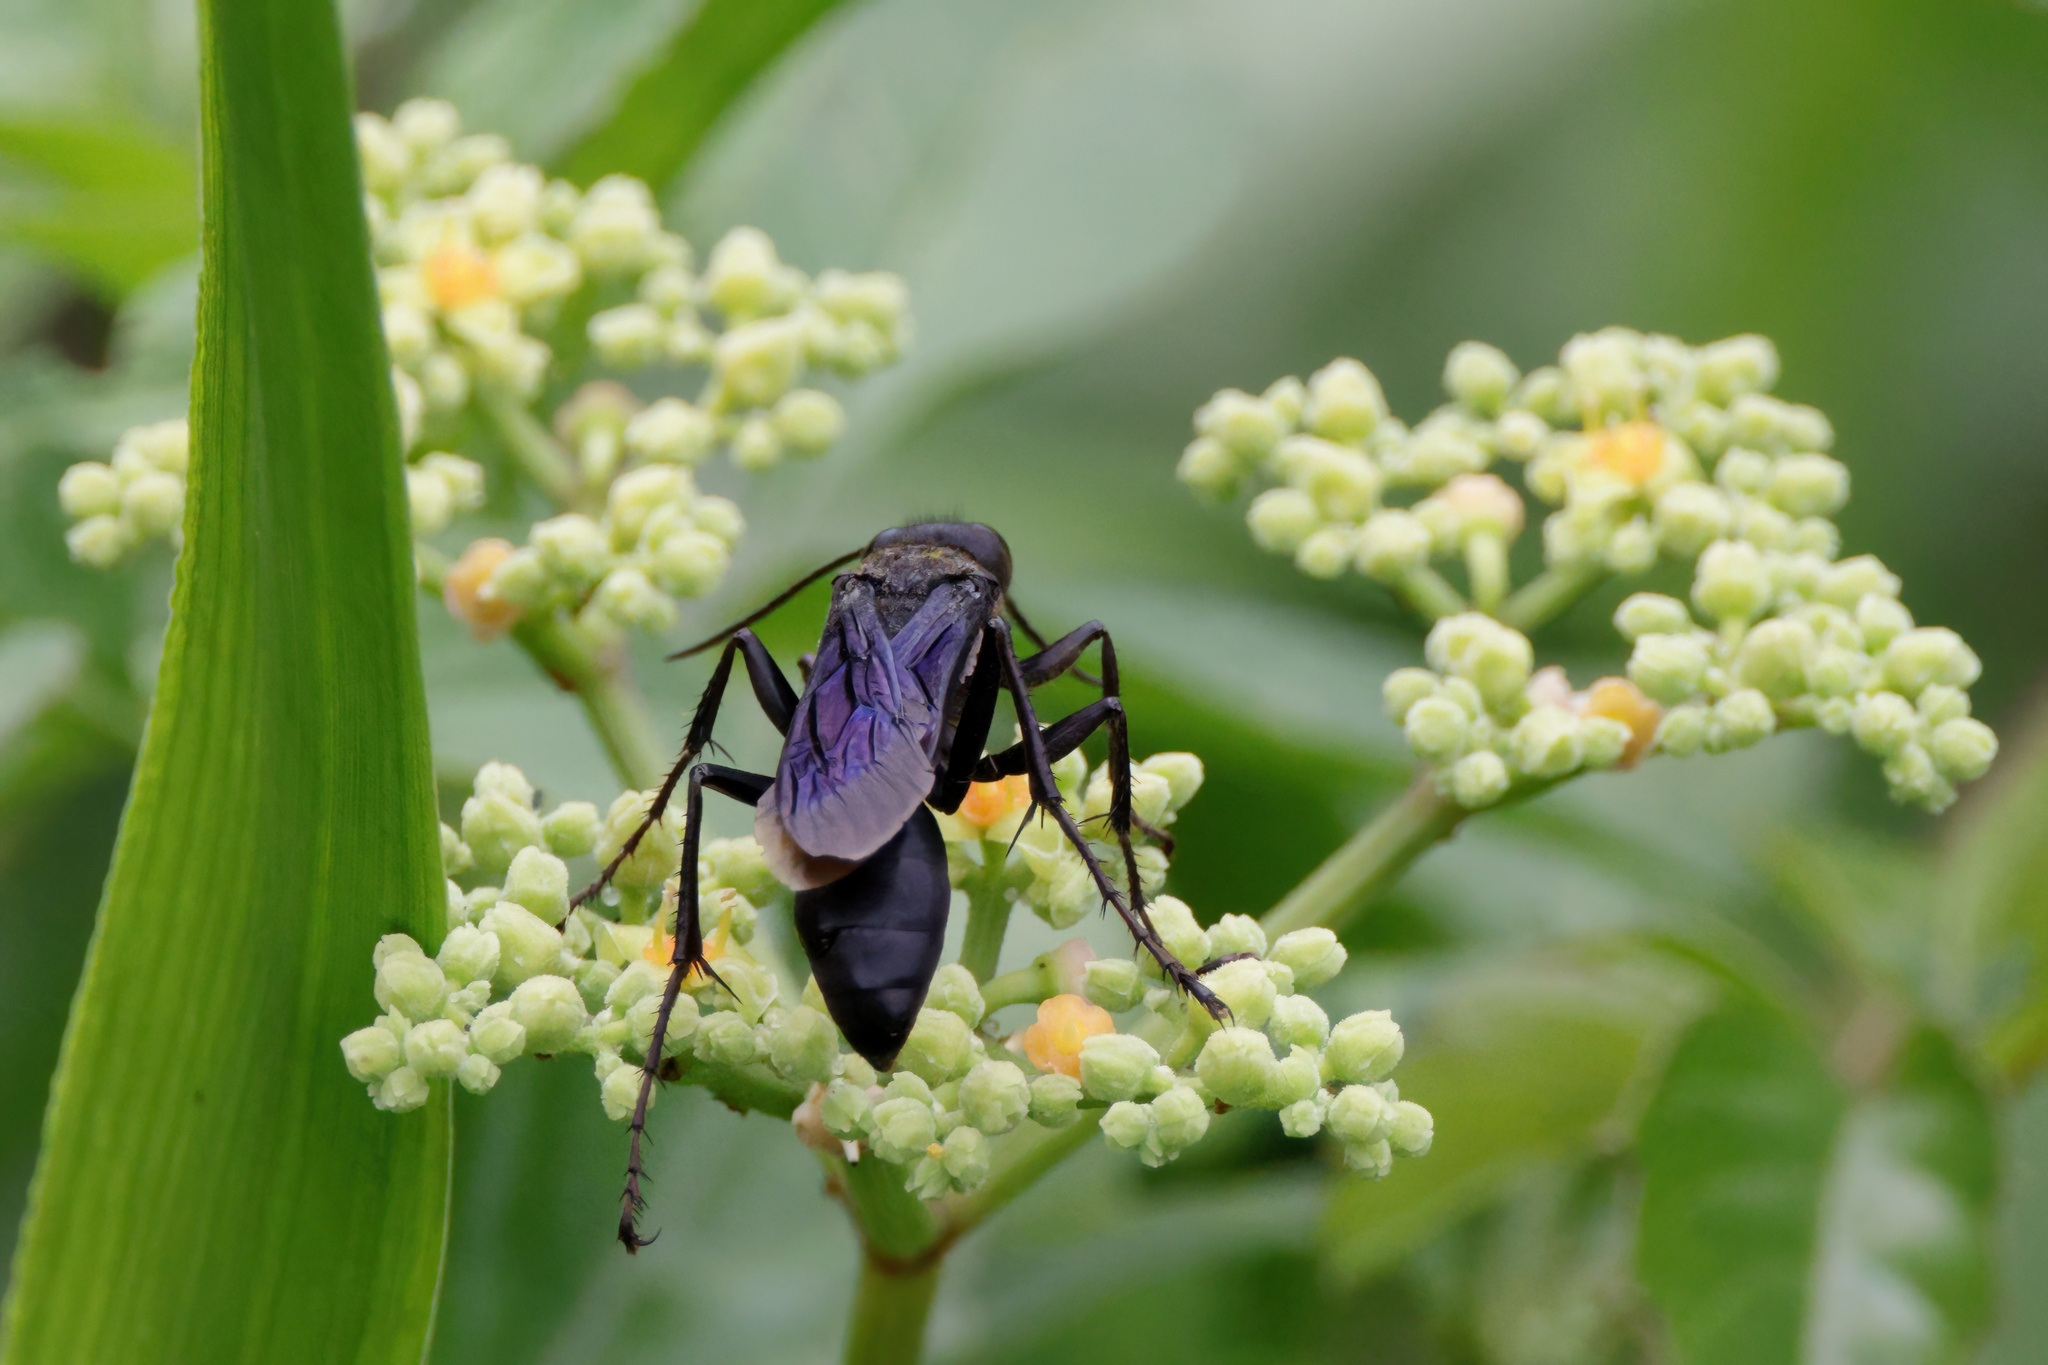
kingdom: Animalia
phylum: Arthropoda
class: Insecta
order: Hymenoptera
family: Sphecidae
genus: Sphex
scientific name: Sphex pensylvanicus
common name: Great black digger wasp
